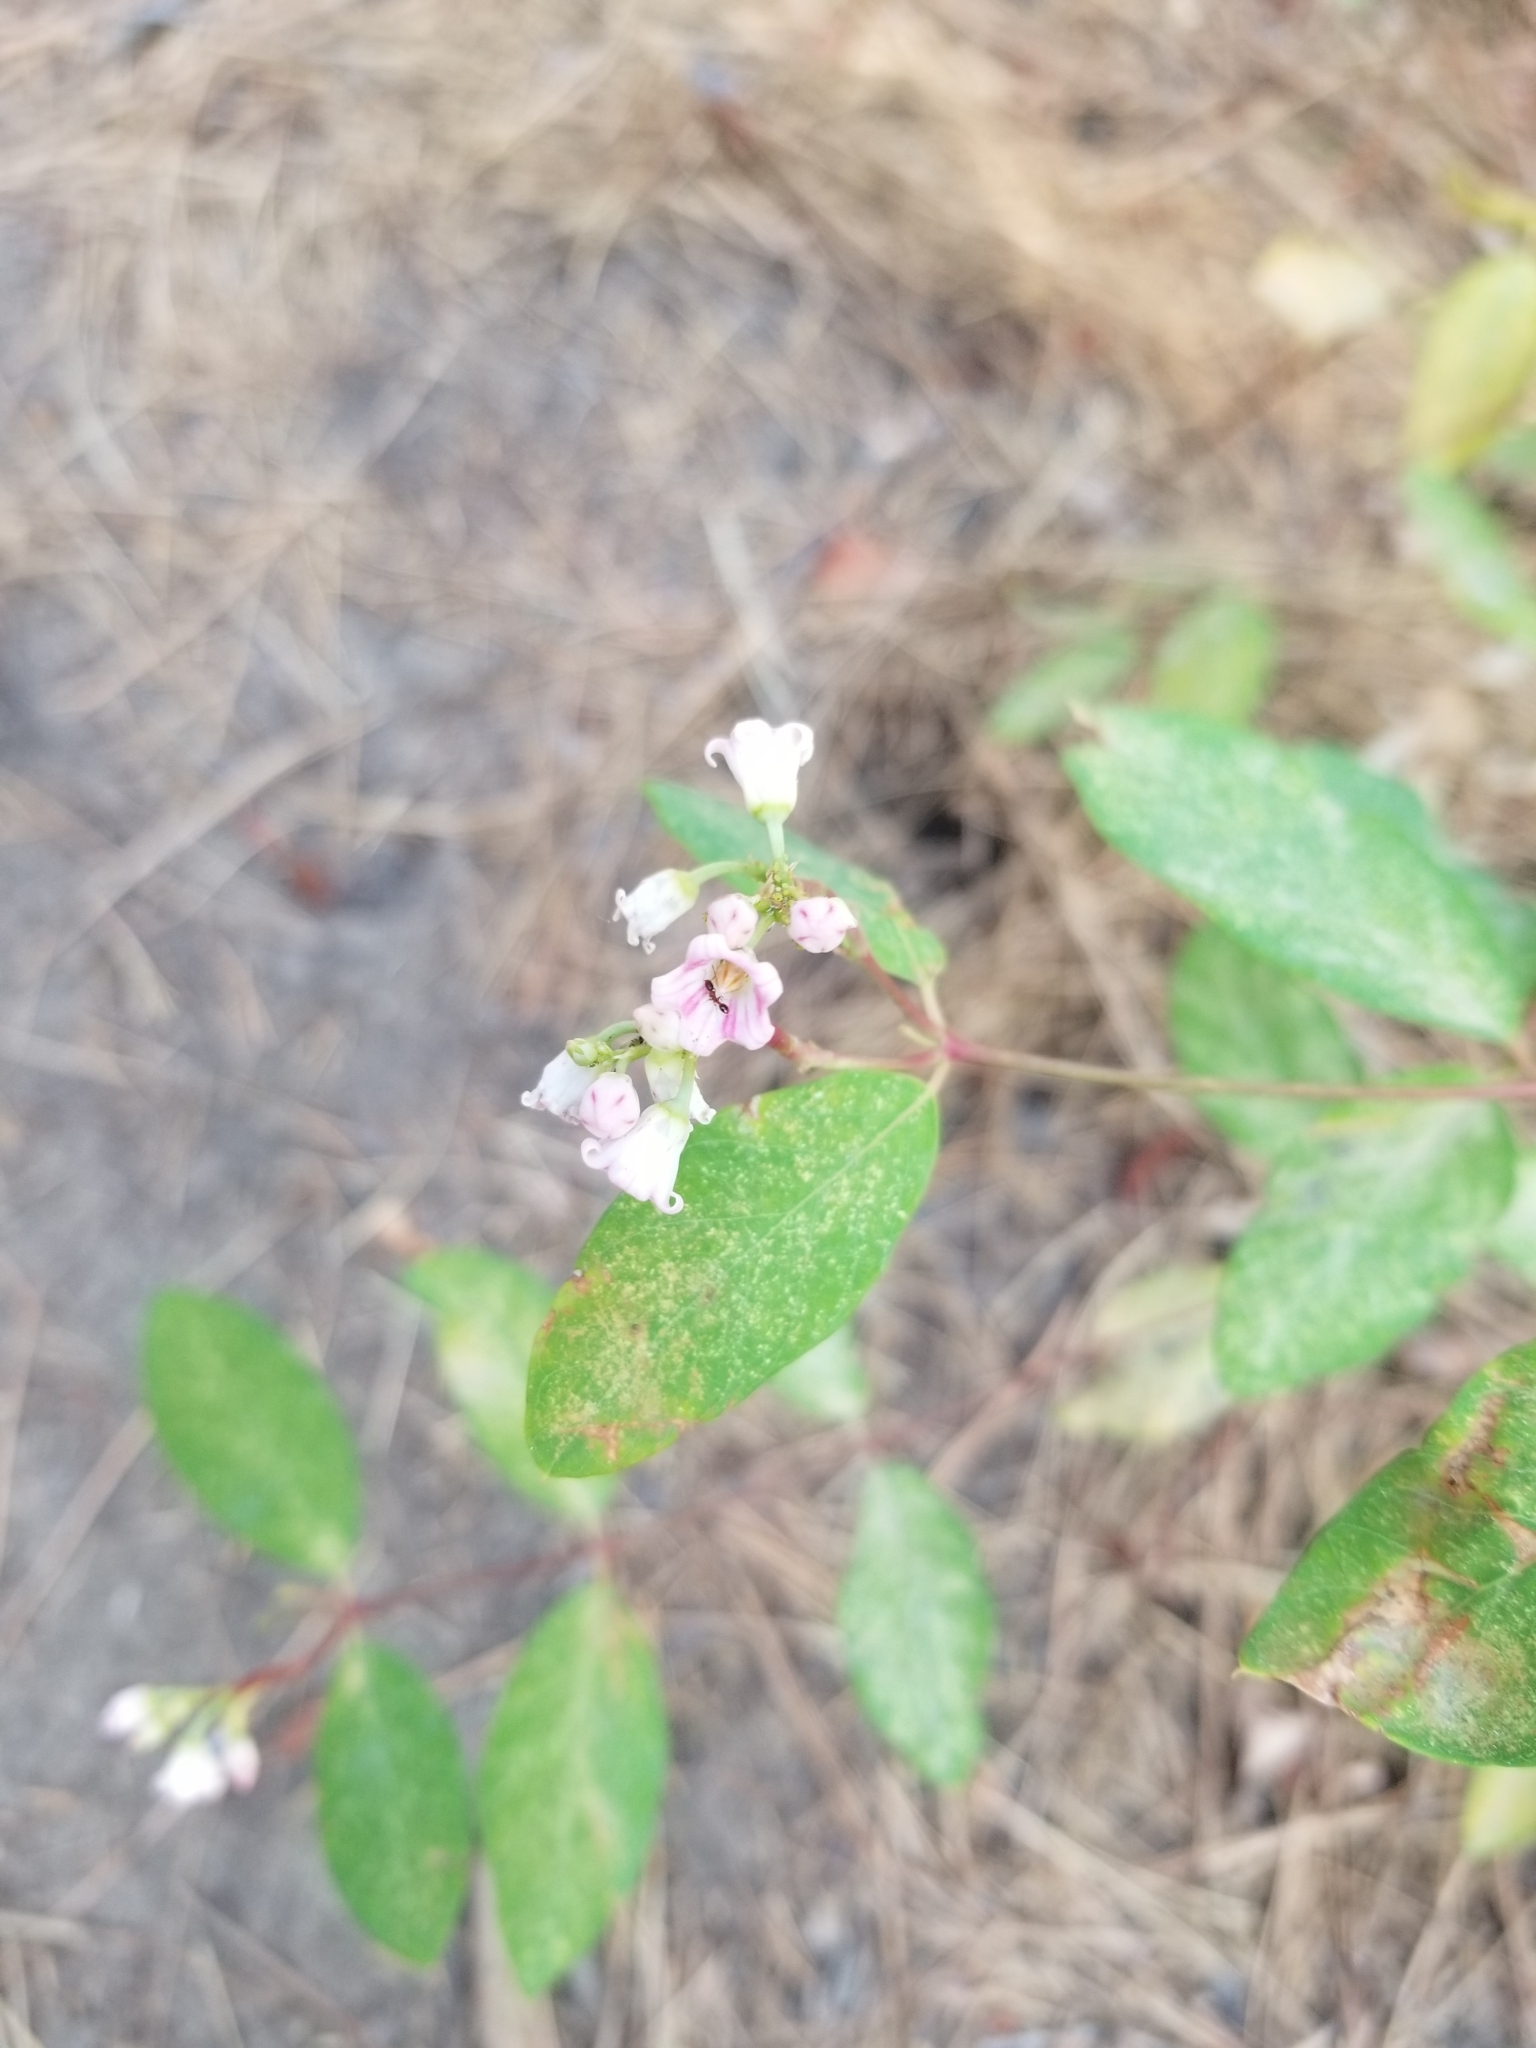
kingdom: Plantae
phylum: Tracheophyta
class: Magnoliopsida
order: Gentianales
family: Apocynaceae
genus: Apocynum
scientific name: Apocynum androsaemifolium
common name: Spreading dogbane
